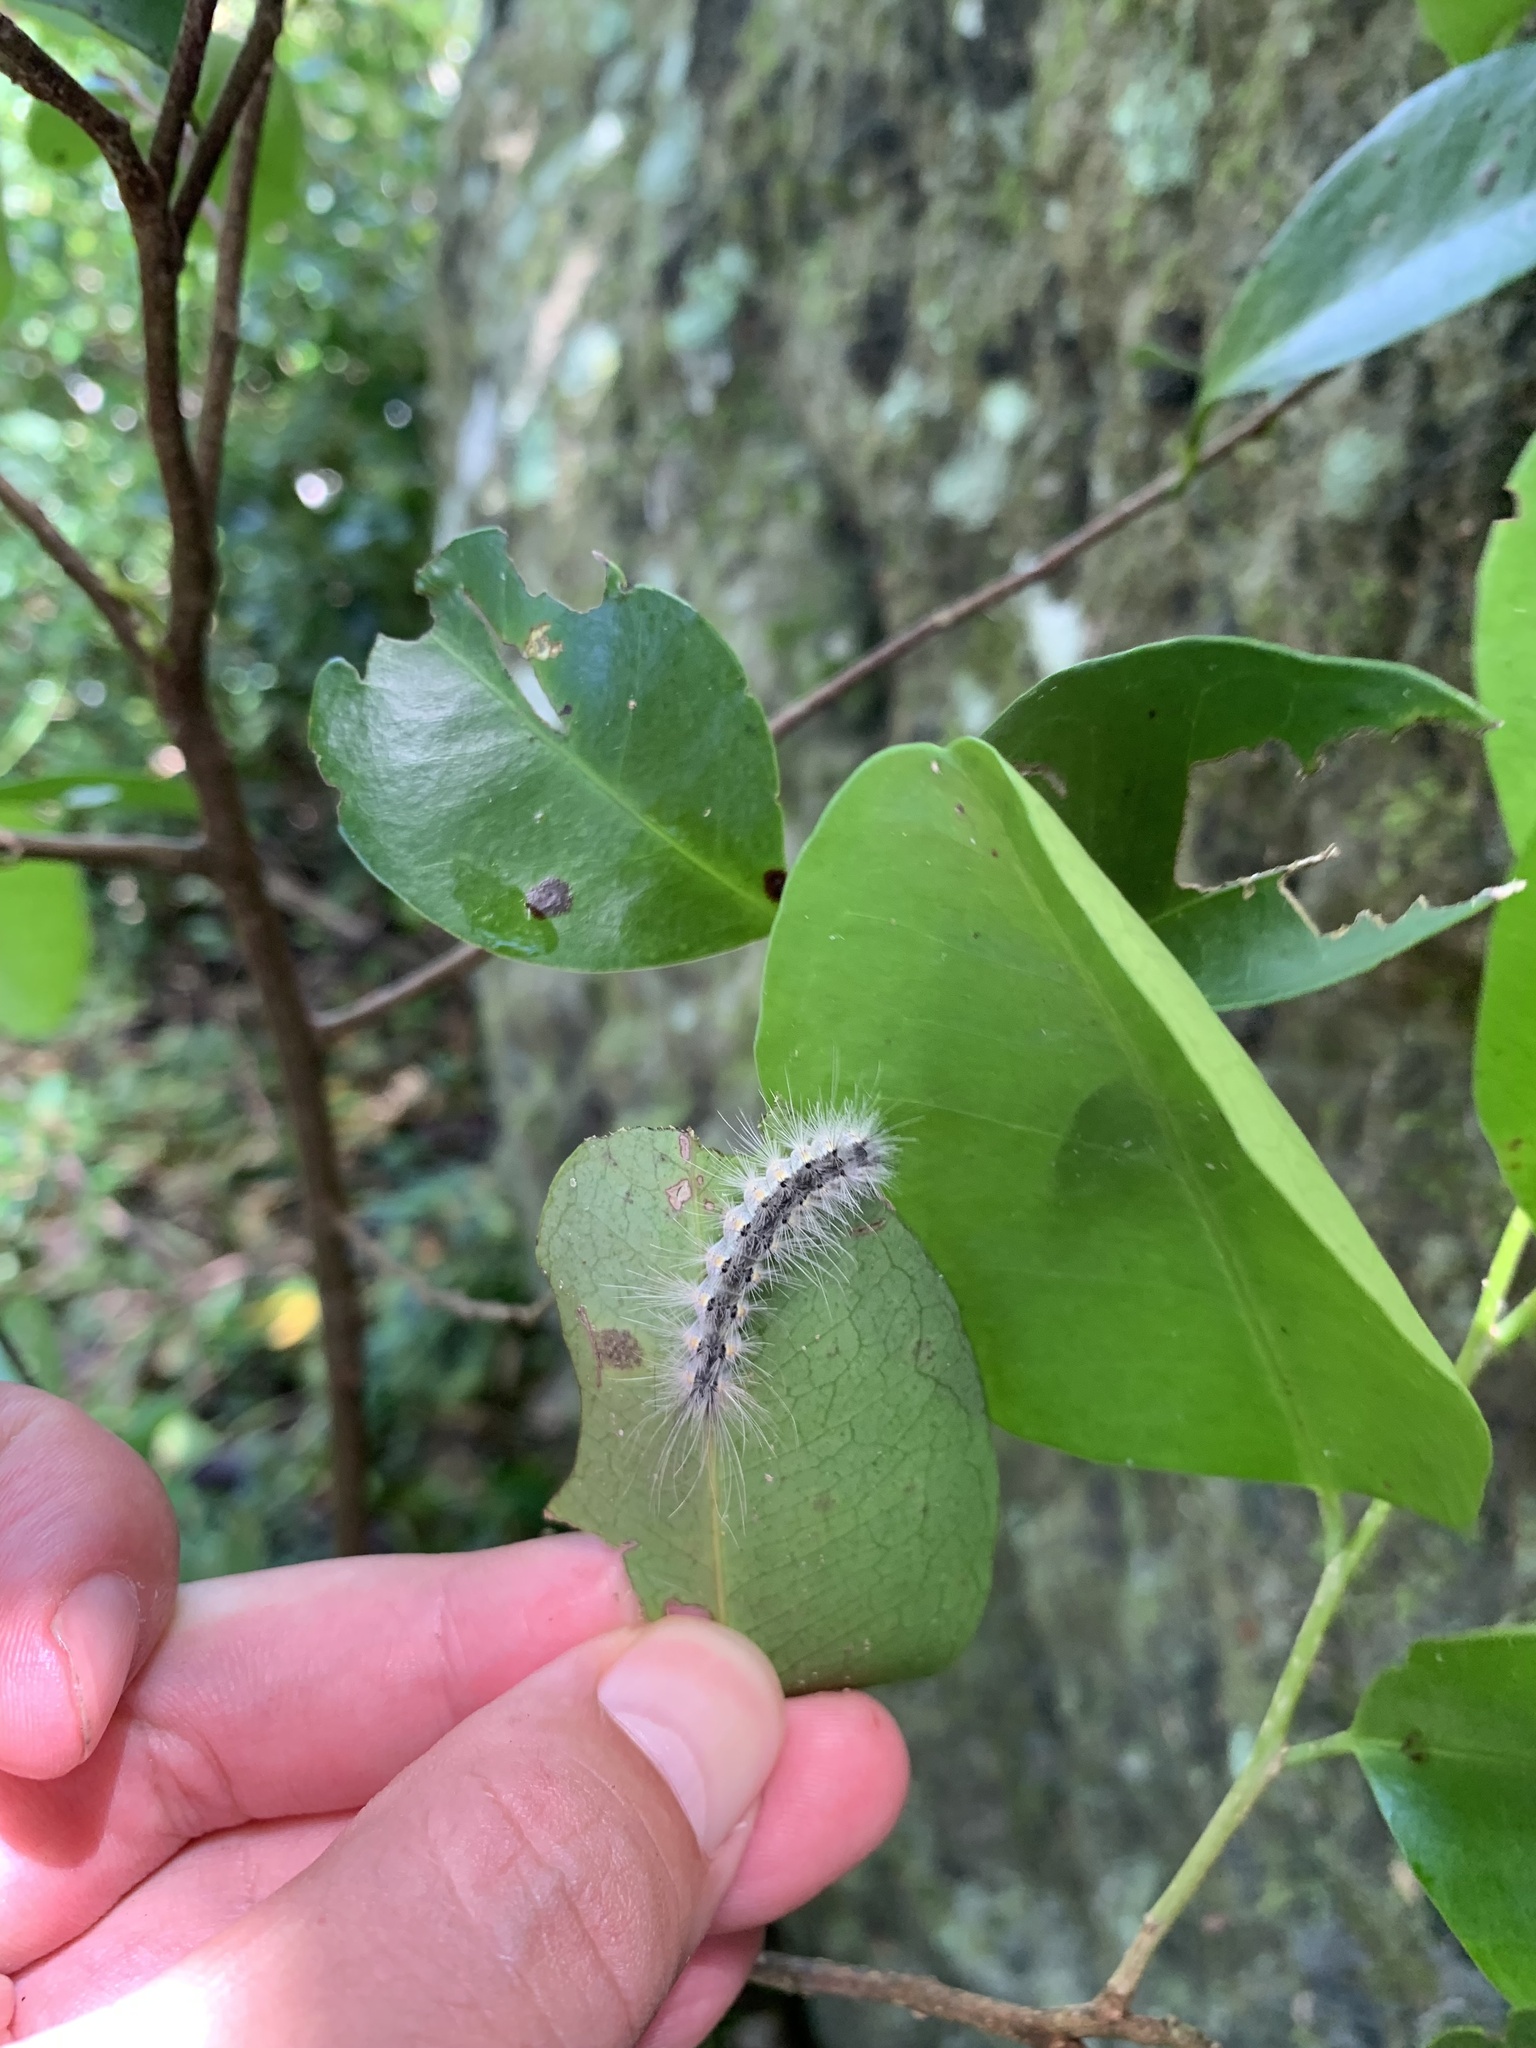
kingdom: Animalia
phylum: Arthropoda
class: Insecta
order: Lepidoptera
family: Erebidae
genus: Hyphantria
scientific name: Hyphantria cunea
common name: American white moth
